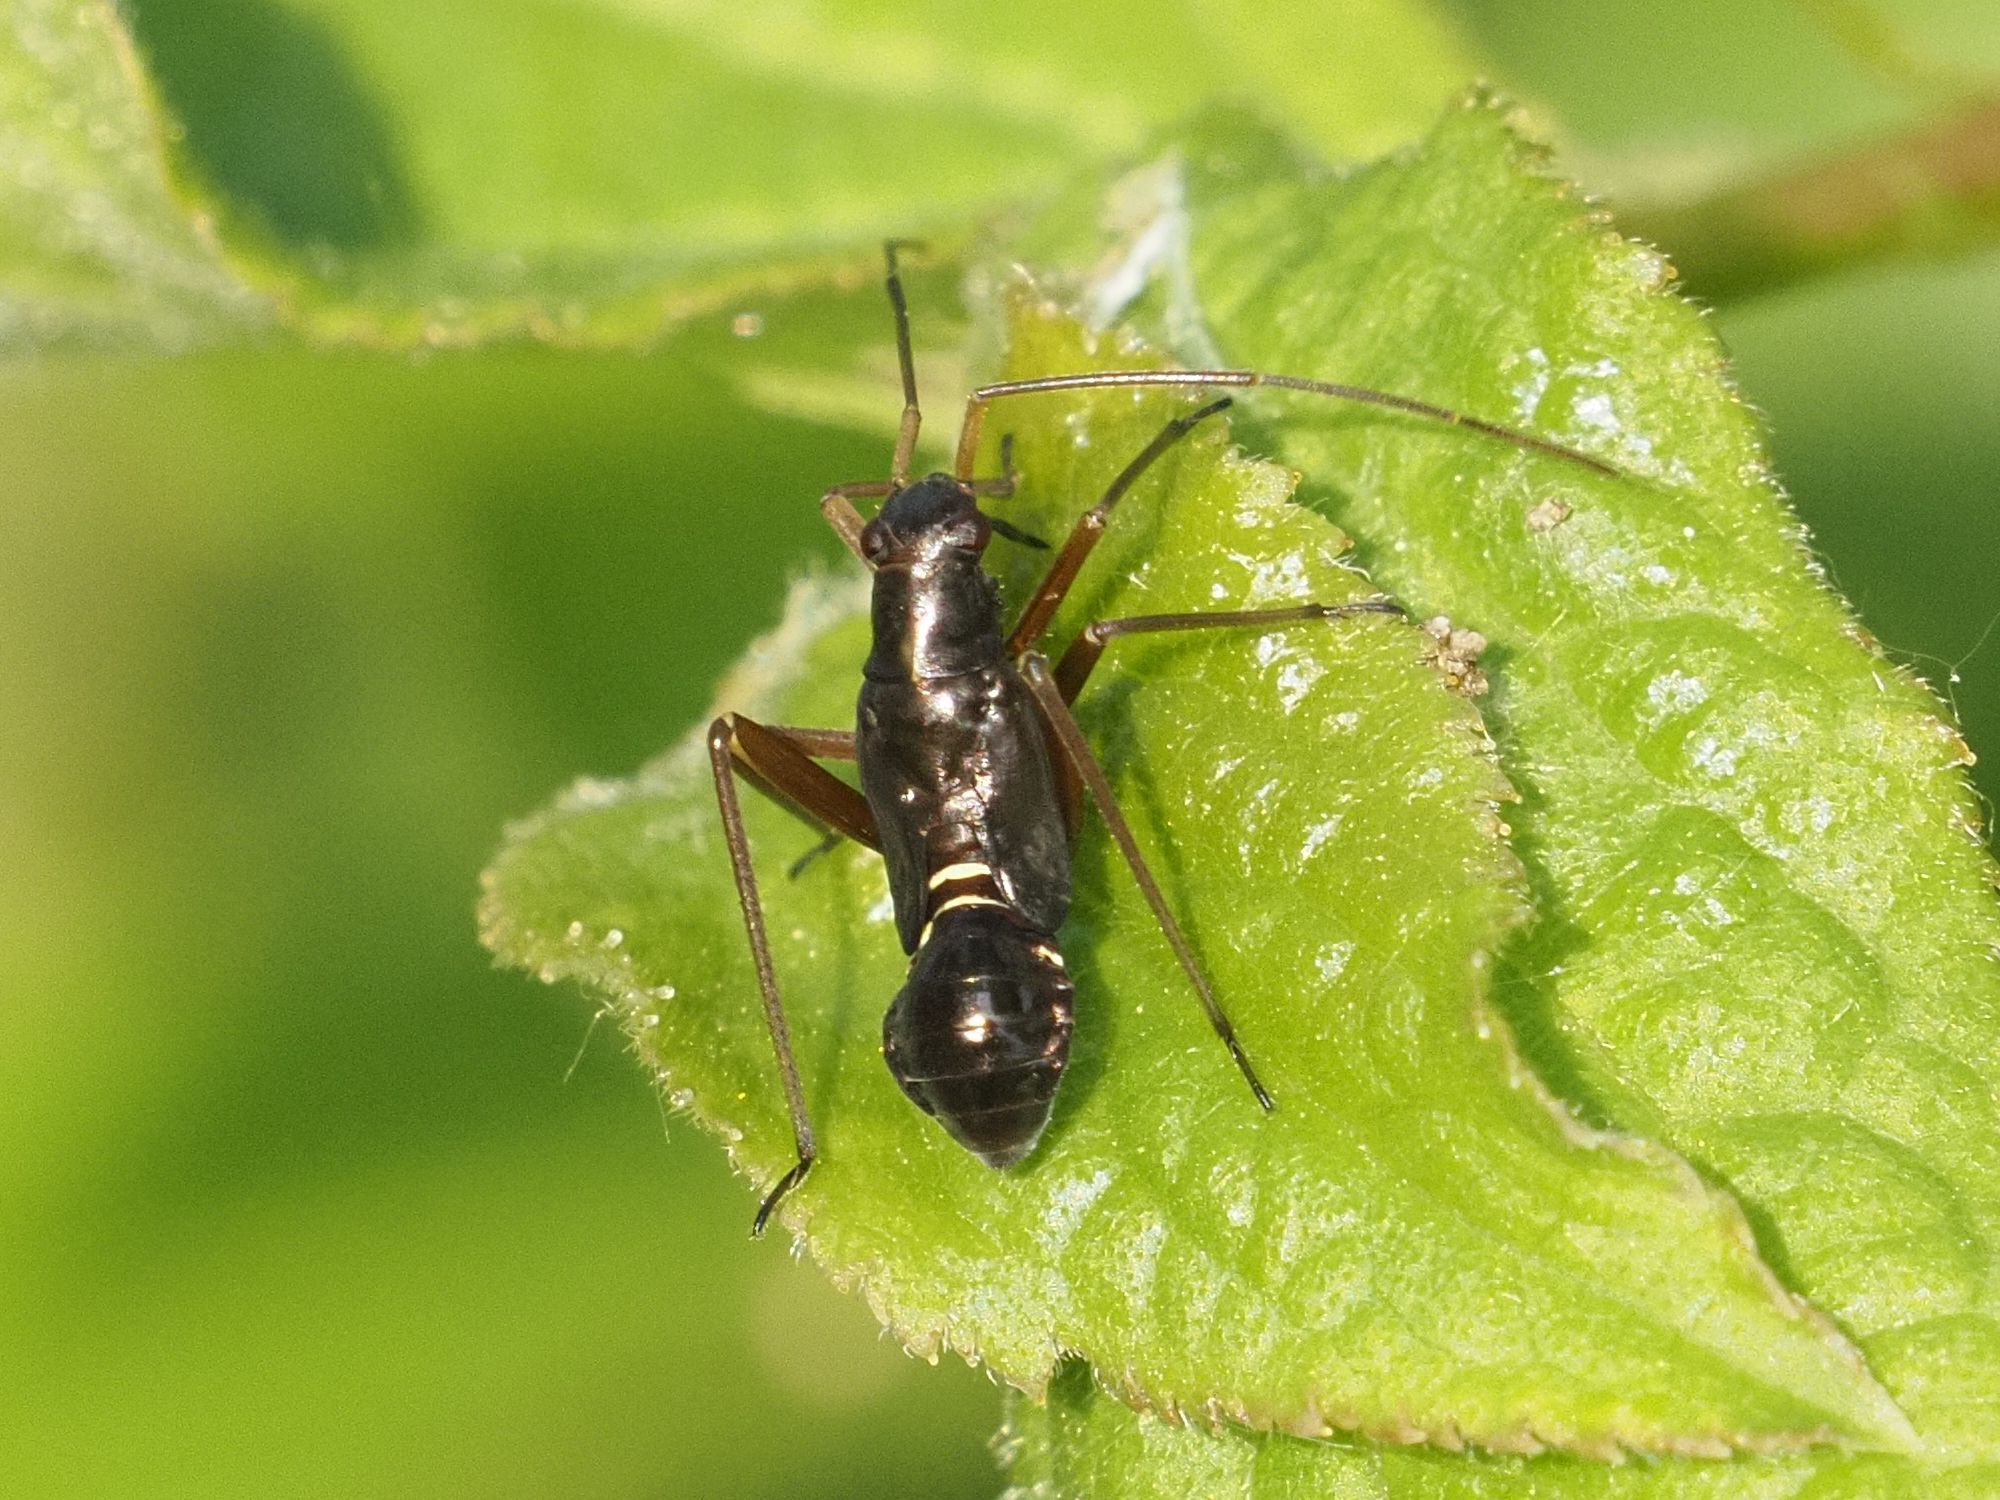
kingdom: Animalia
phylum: Arthropoda
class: Insecta
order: Hemiptera
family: Miridae
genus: Miris
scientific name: Miris striatus
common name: Fine streaked bugkin
